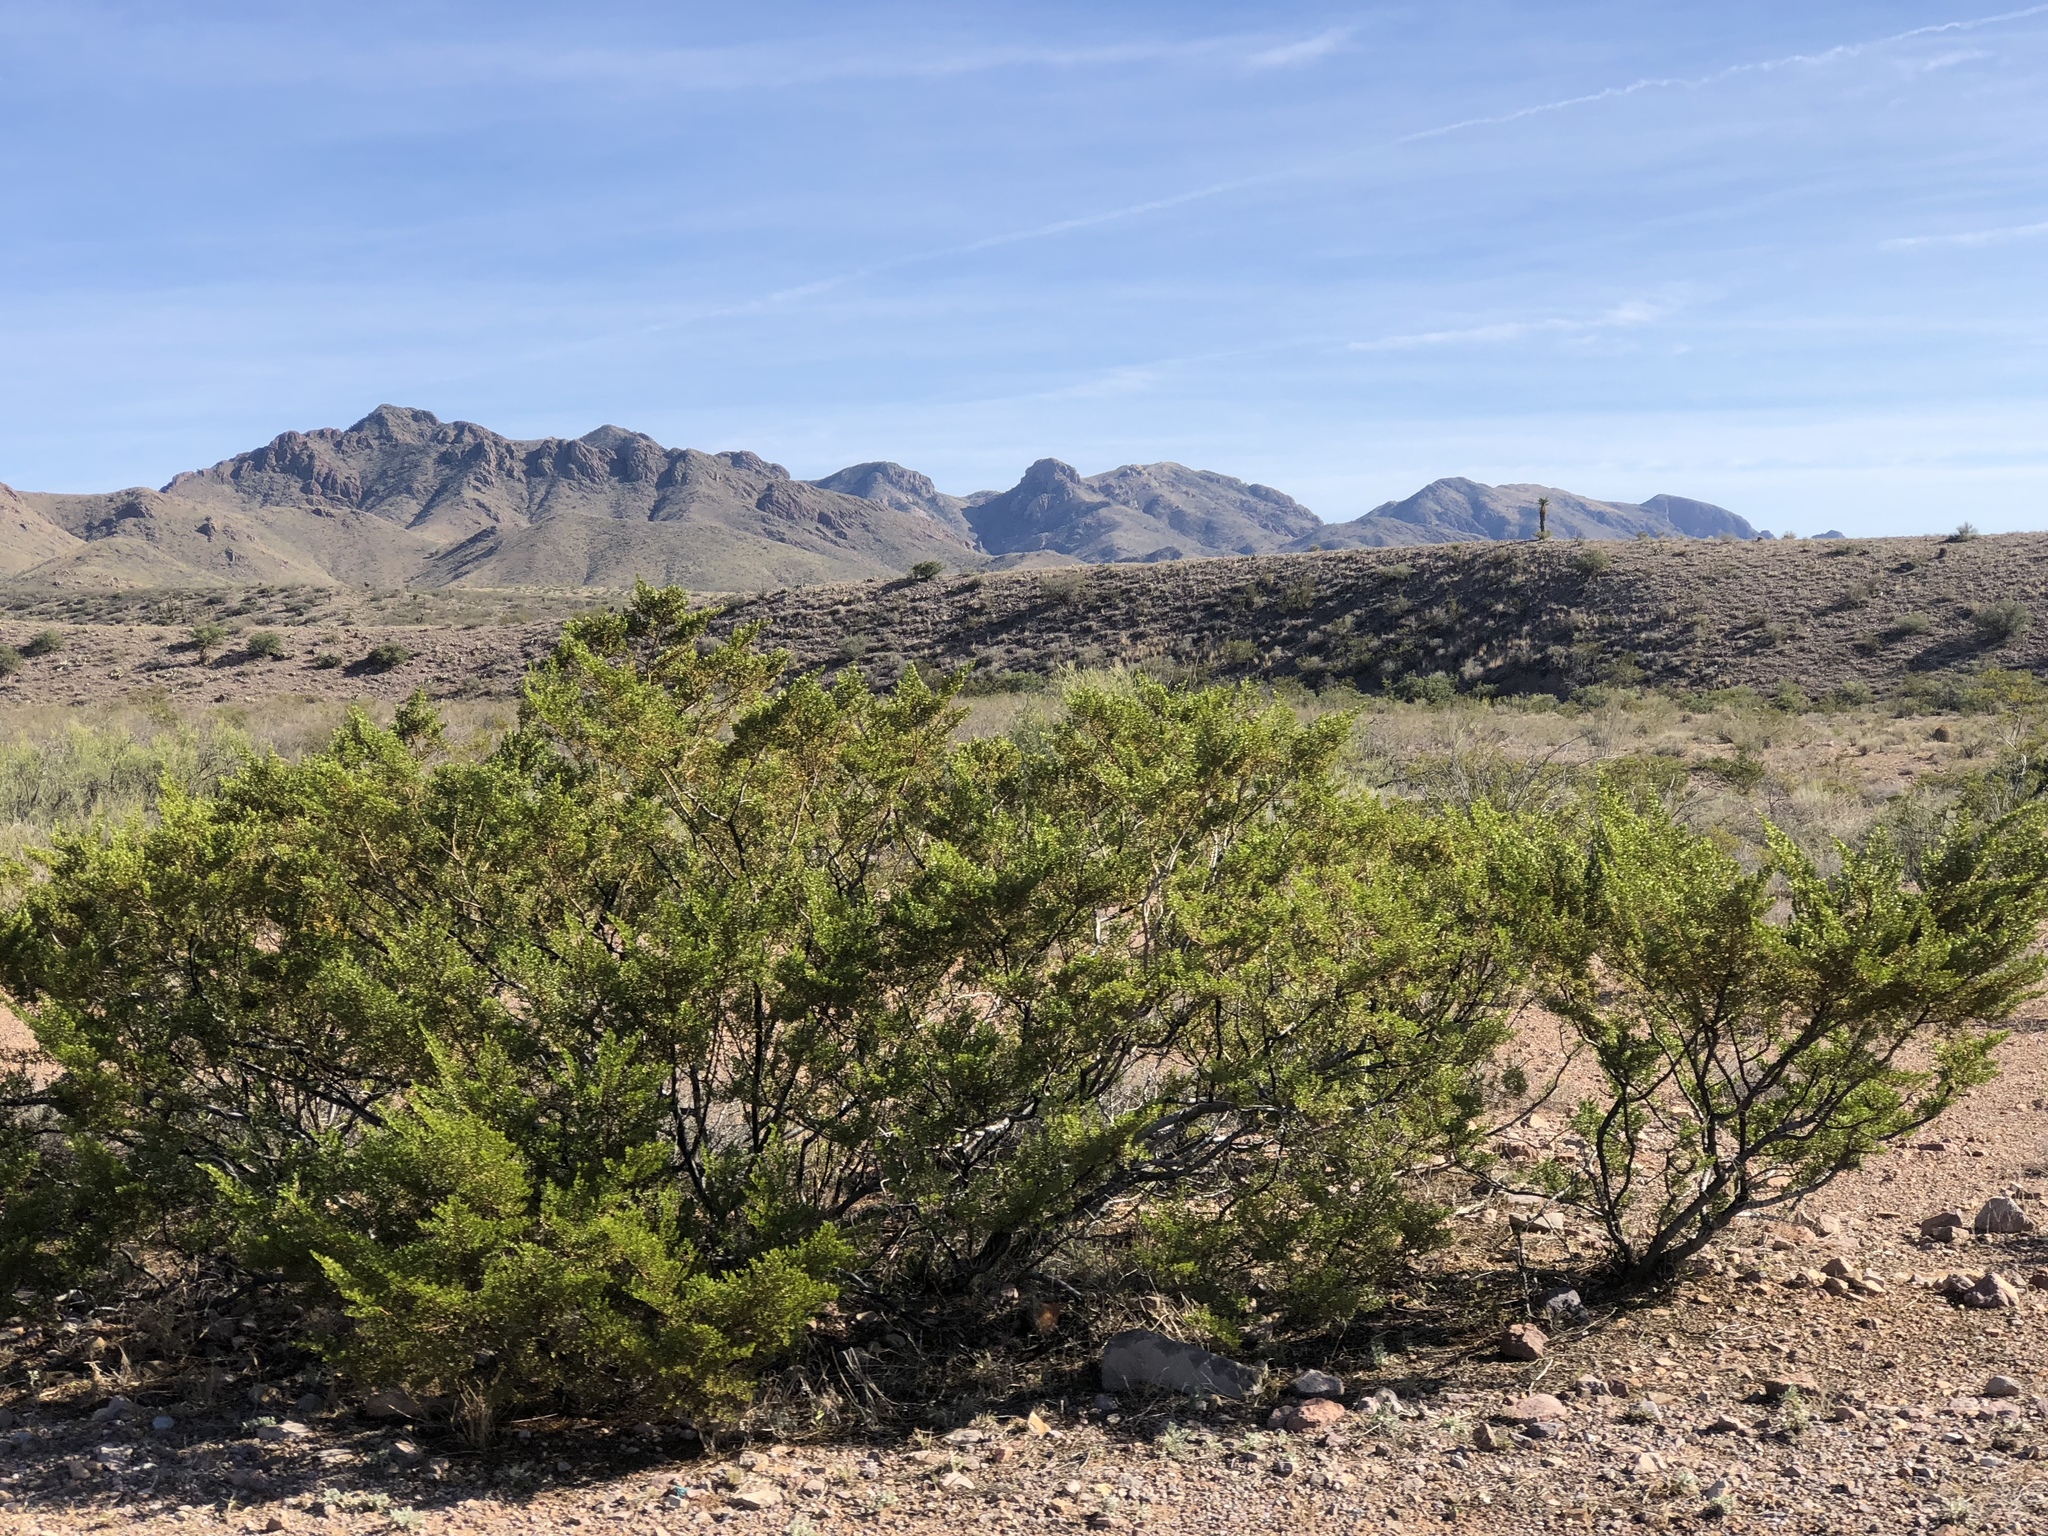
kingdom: Plantae
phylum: Tracheophyta
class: Magnoliopsida
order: Zygophyllales
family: Zygophyllaceae
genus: Larrea
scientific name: Larrea tridentata
